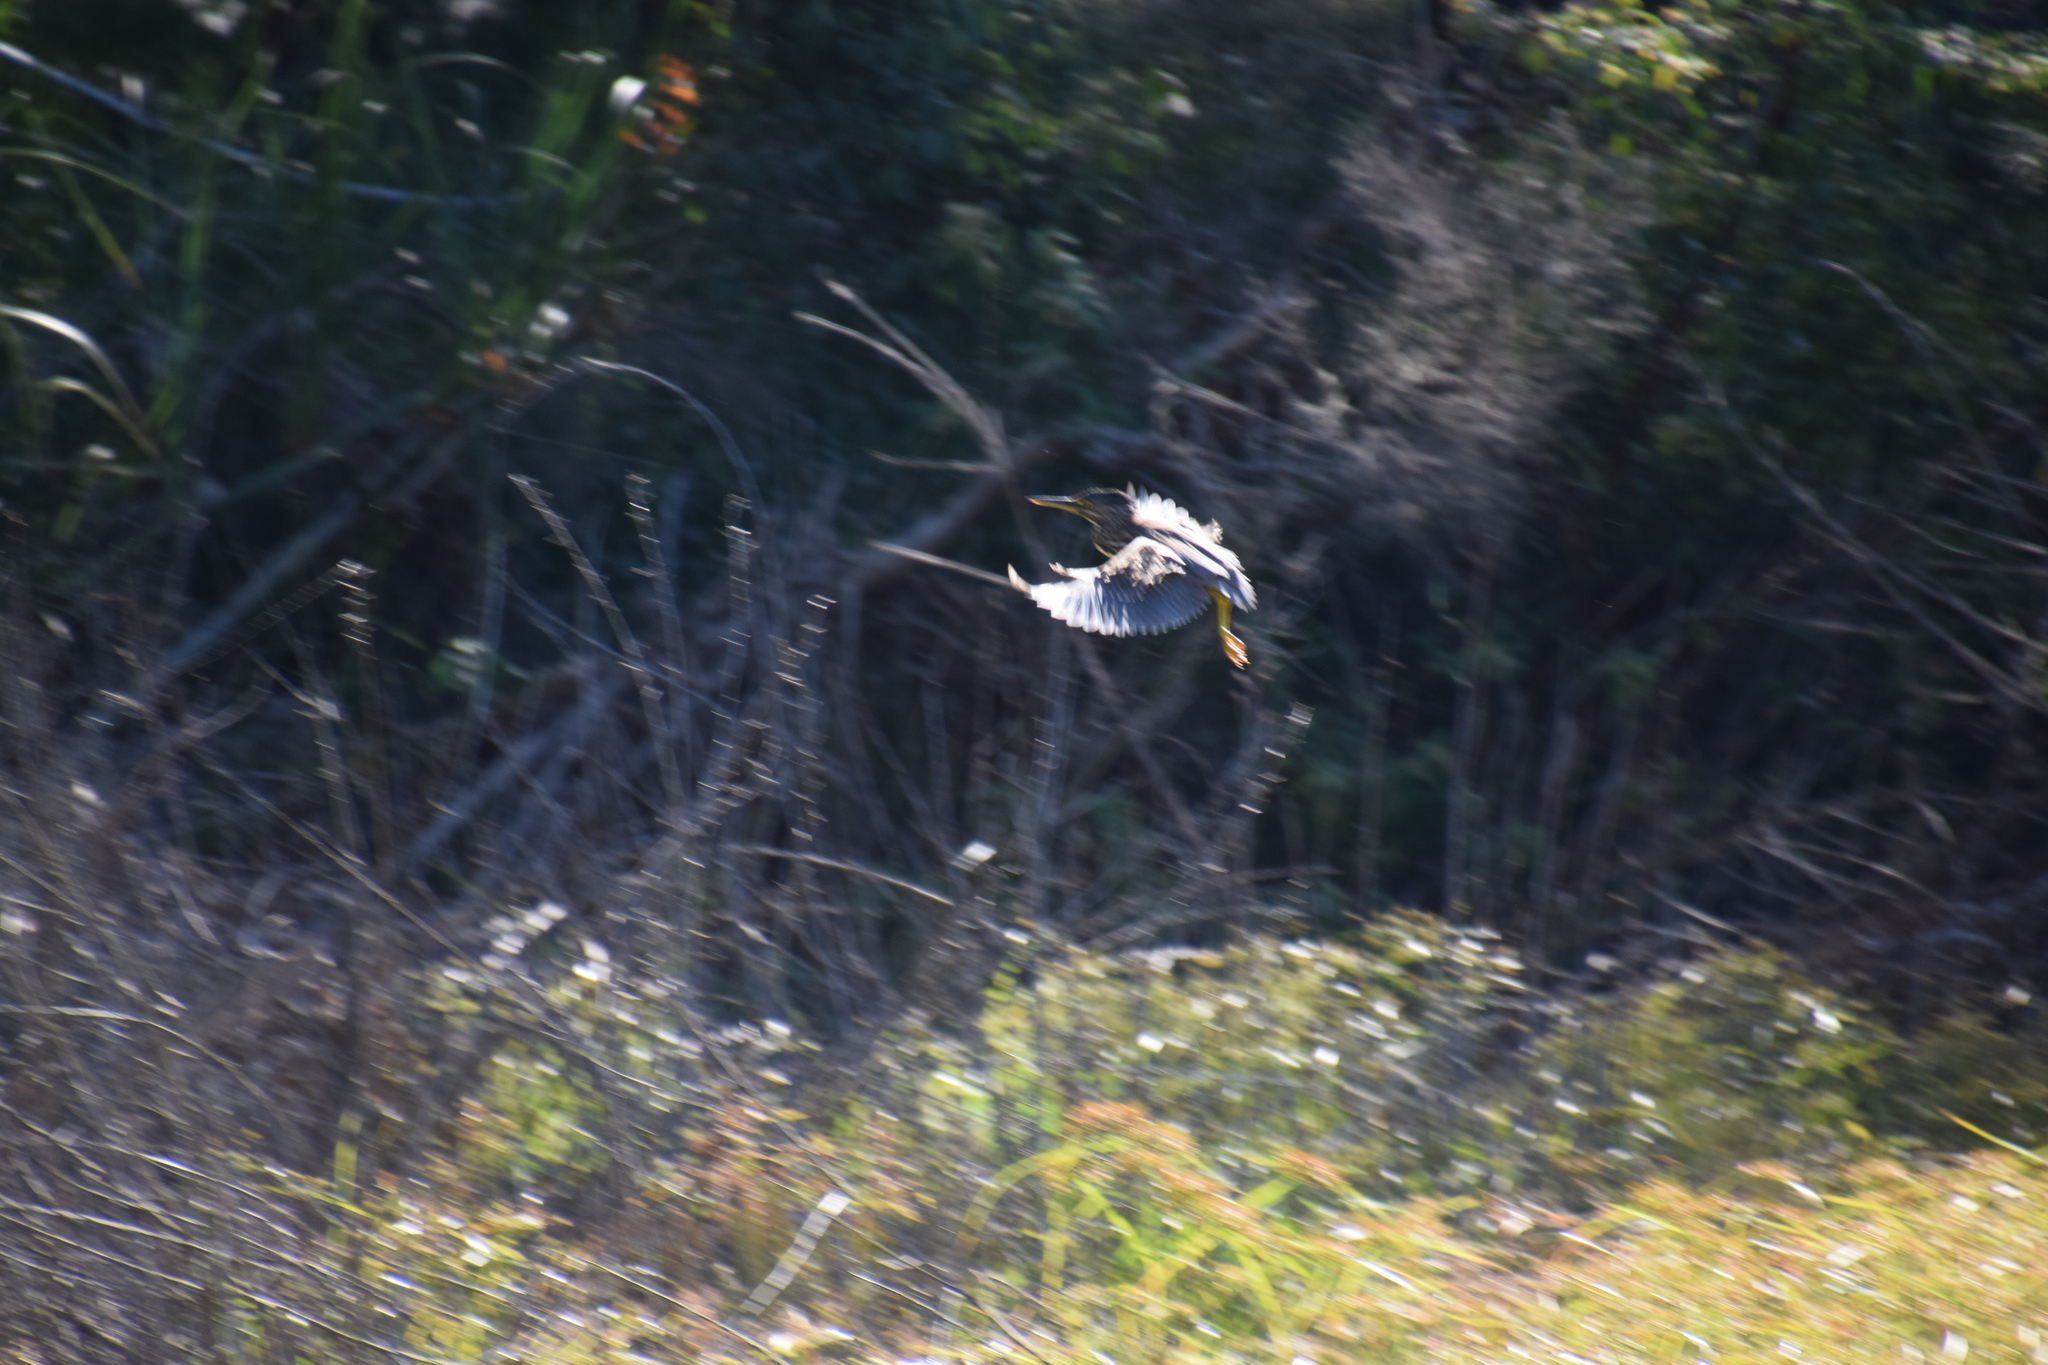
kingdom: Animalia
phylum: Chordata
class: Aves
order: Pelecaniformes
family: Ardeidae
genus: Butorides
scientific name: Butorides striata
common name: Striated heron
